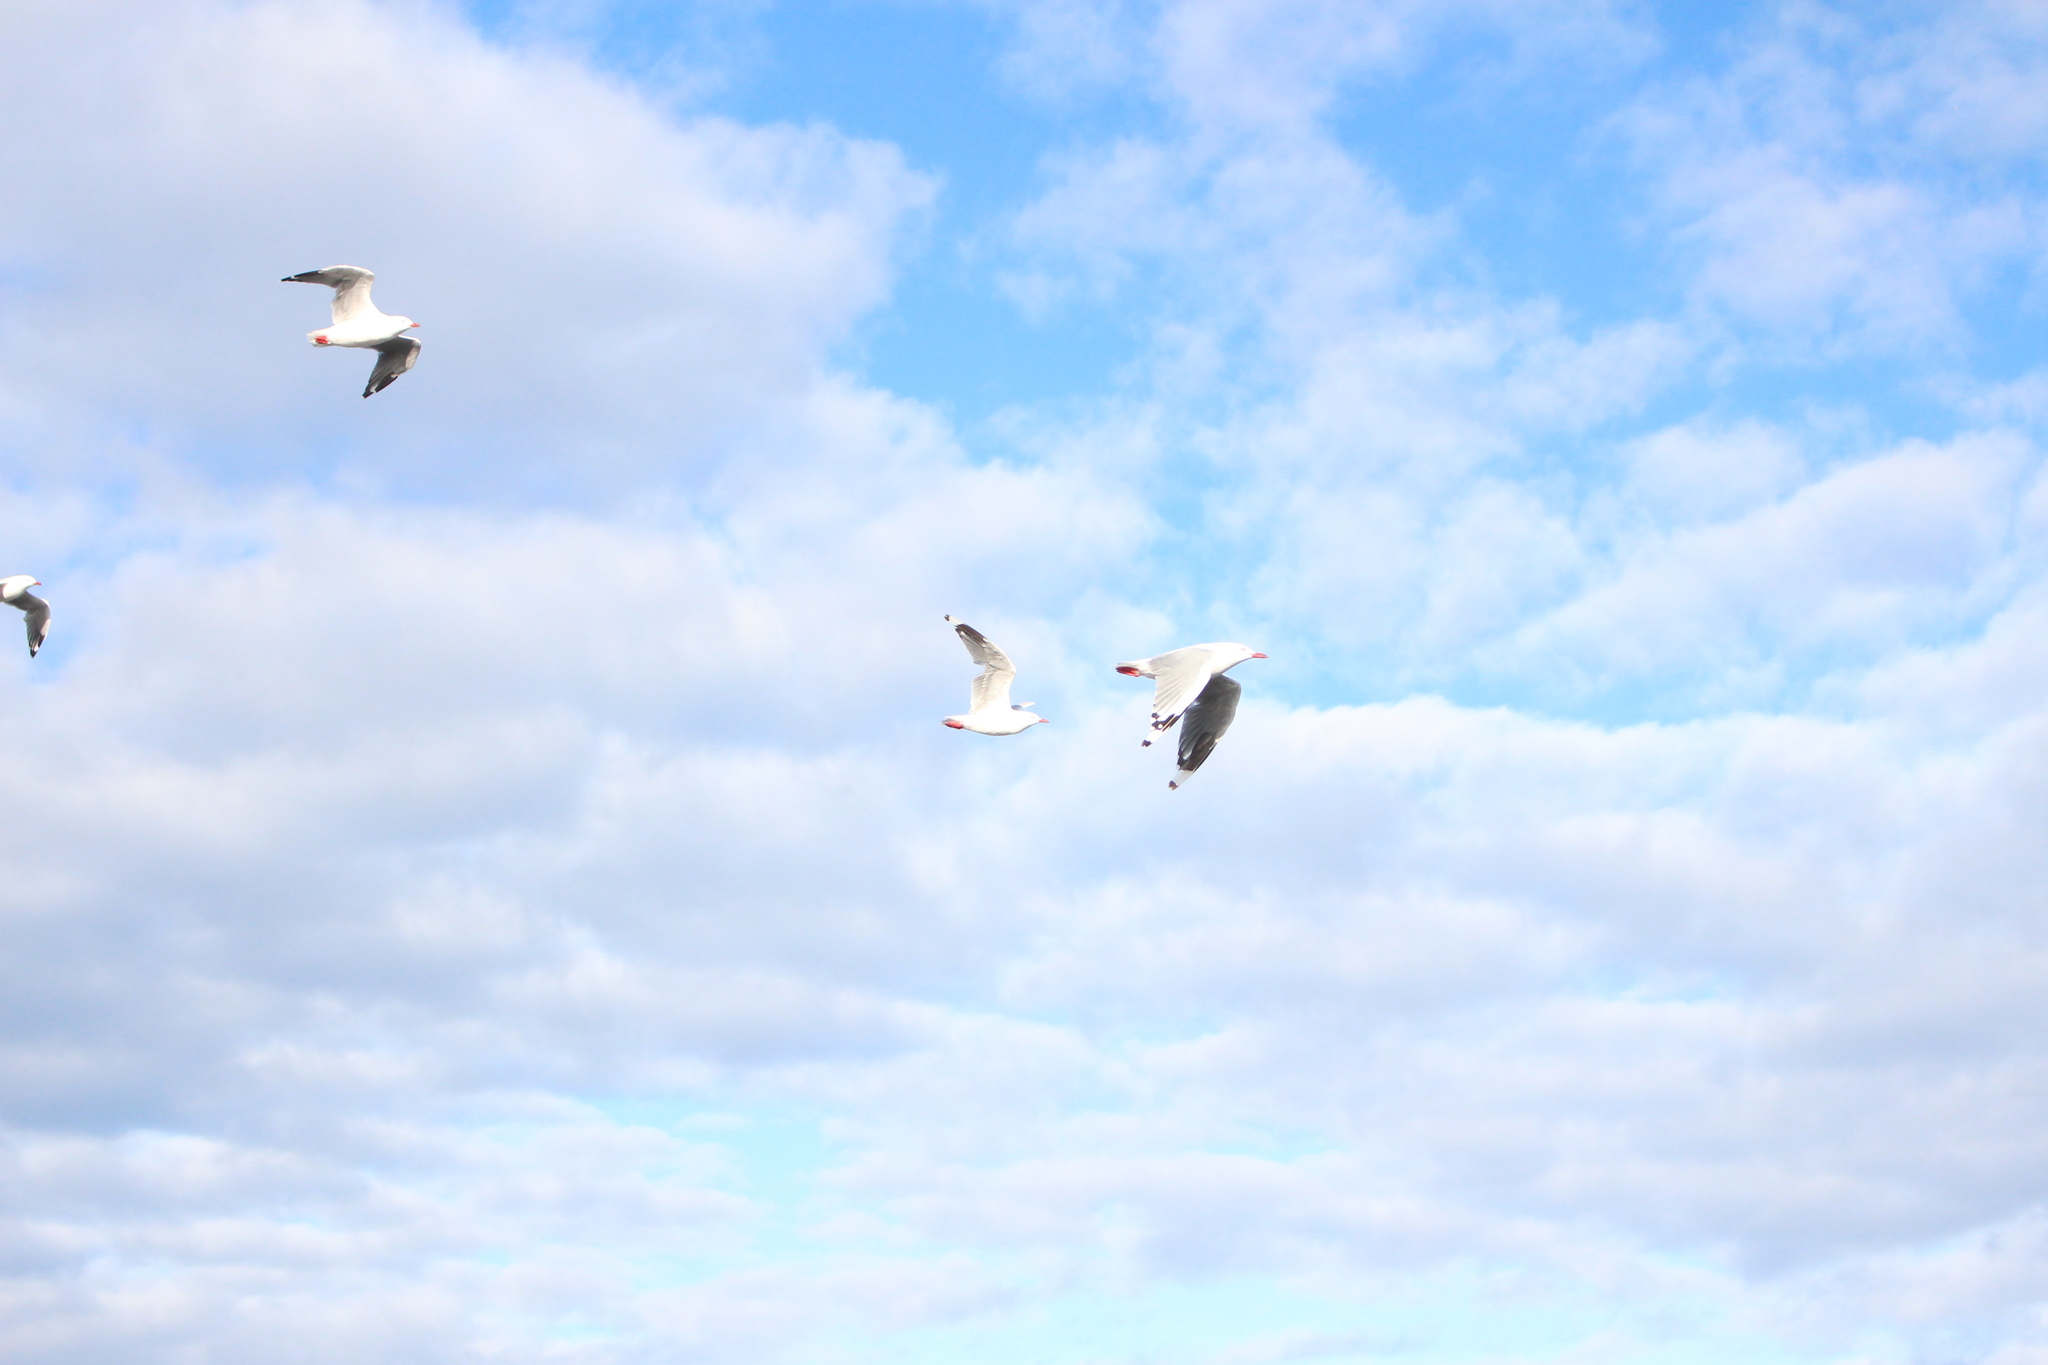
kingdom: Animalia
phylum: Chordata
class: Aves
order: Charadriiformes
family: Laridae
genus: Chroicocephalus
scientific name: Chroicocephalus novaehollandiae
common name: Silver gull
